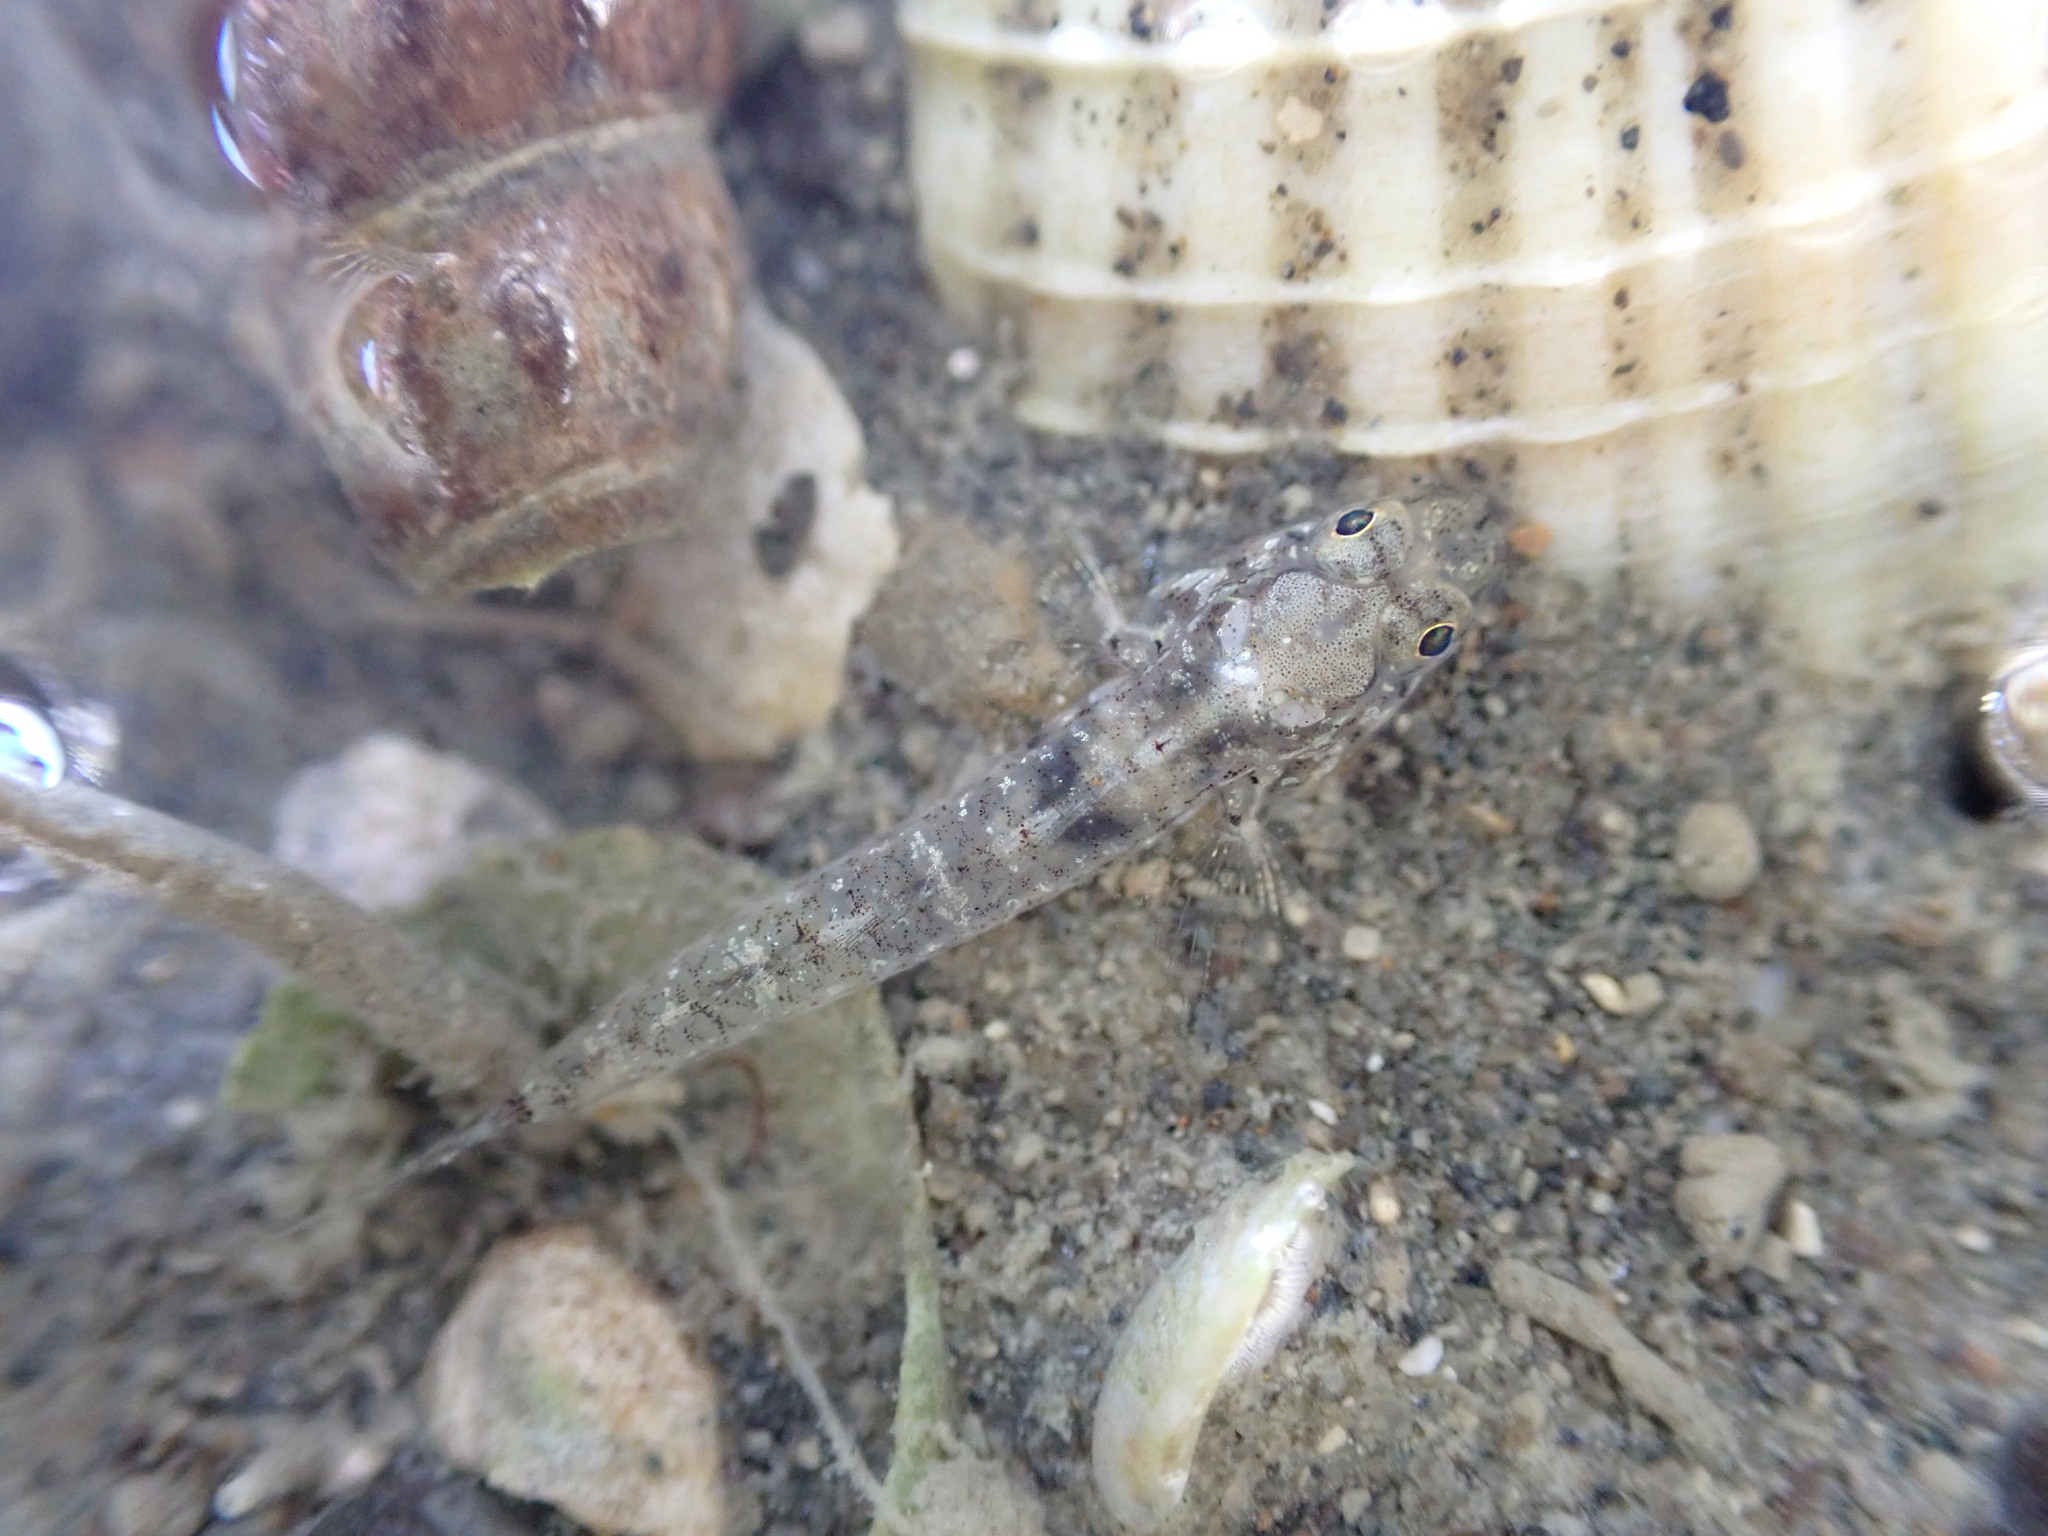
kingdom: Animalia
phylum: Chordata
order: Perciformes
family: Gobiidae
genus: Favonigobius
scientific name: Favonigobius exquisitus
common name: Exquisite sand-goby
